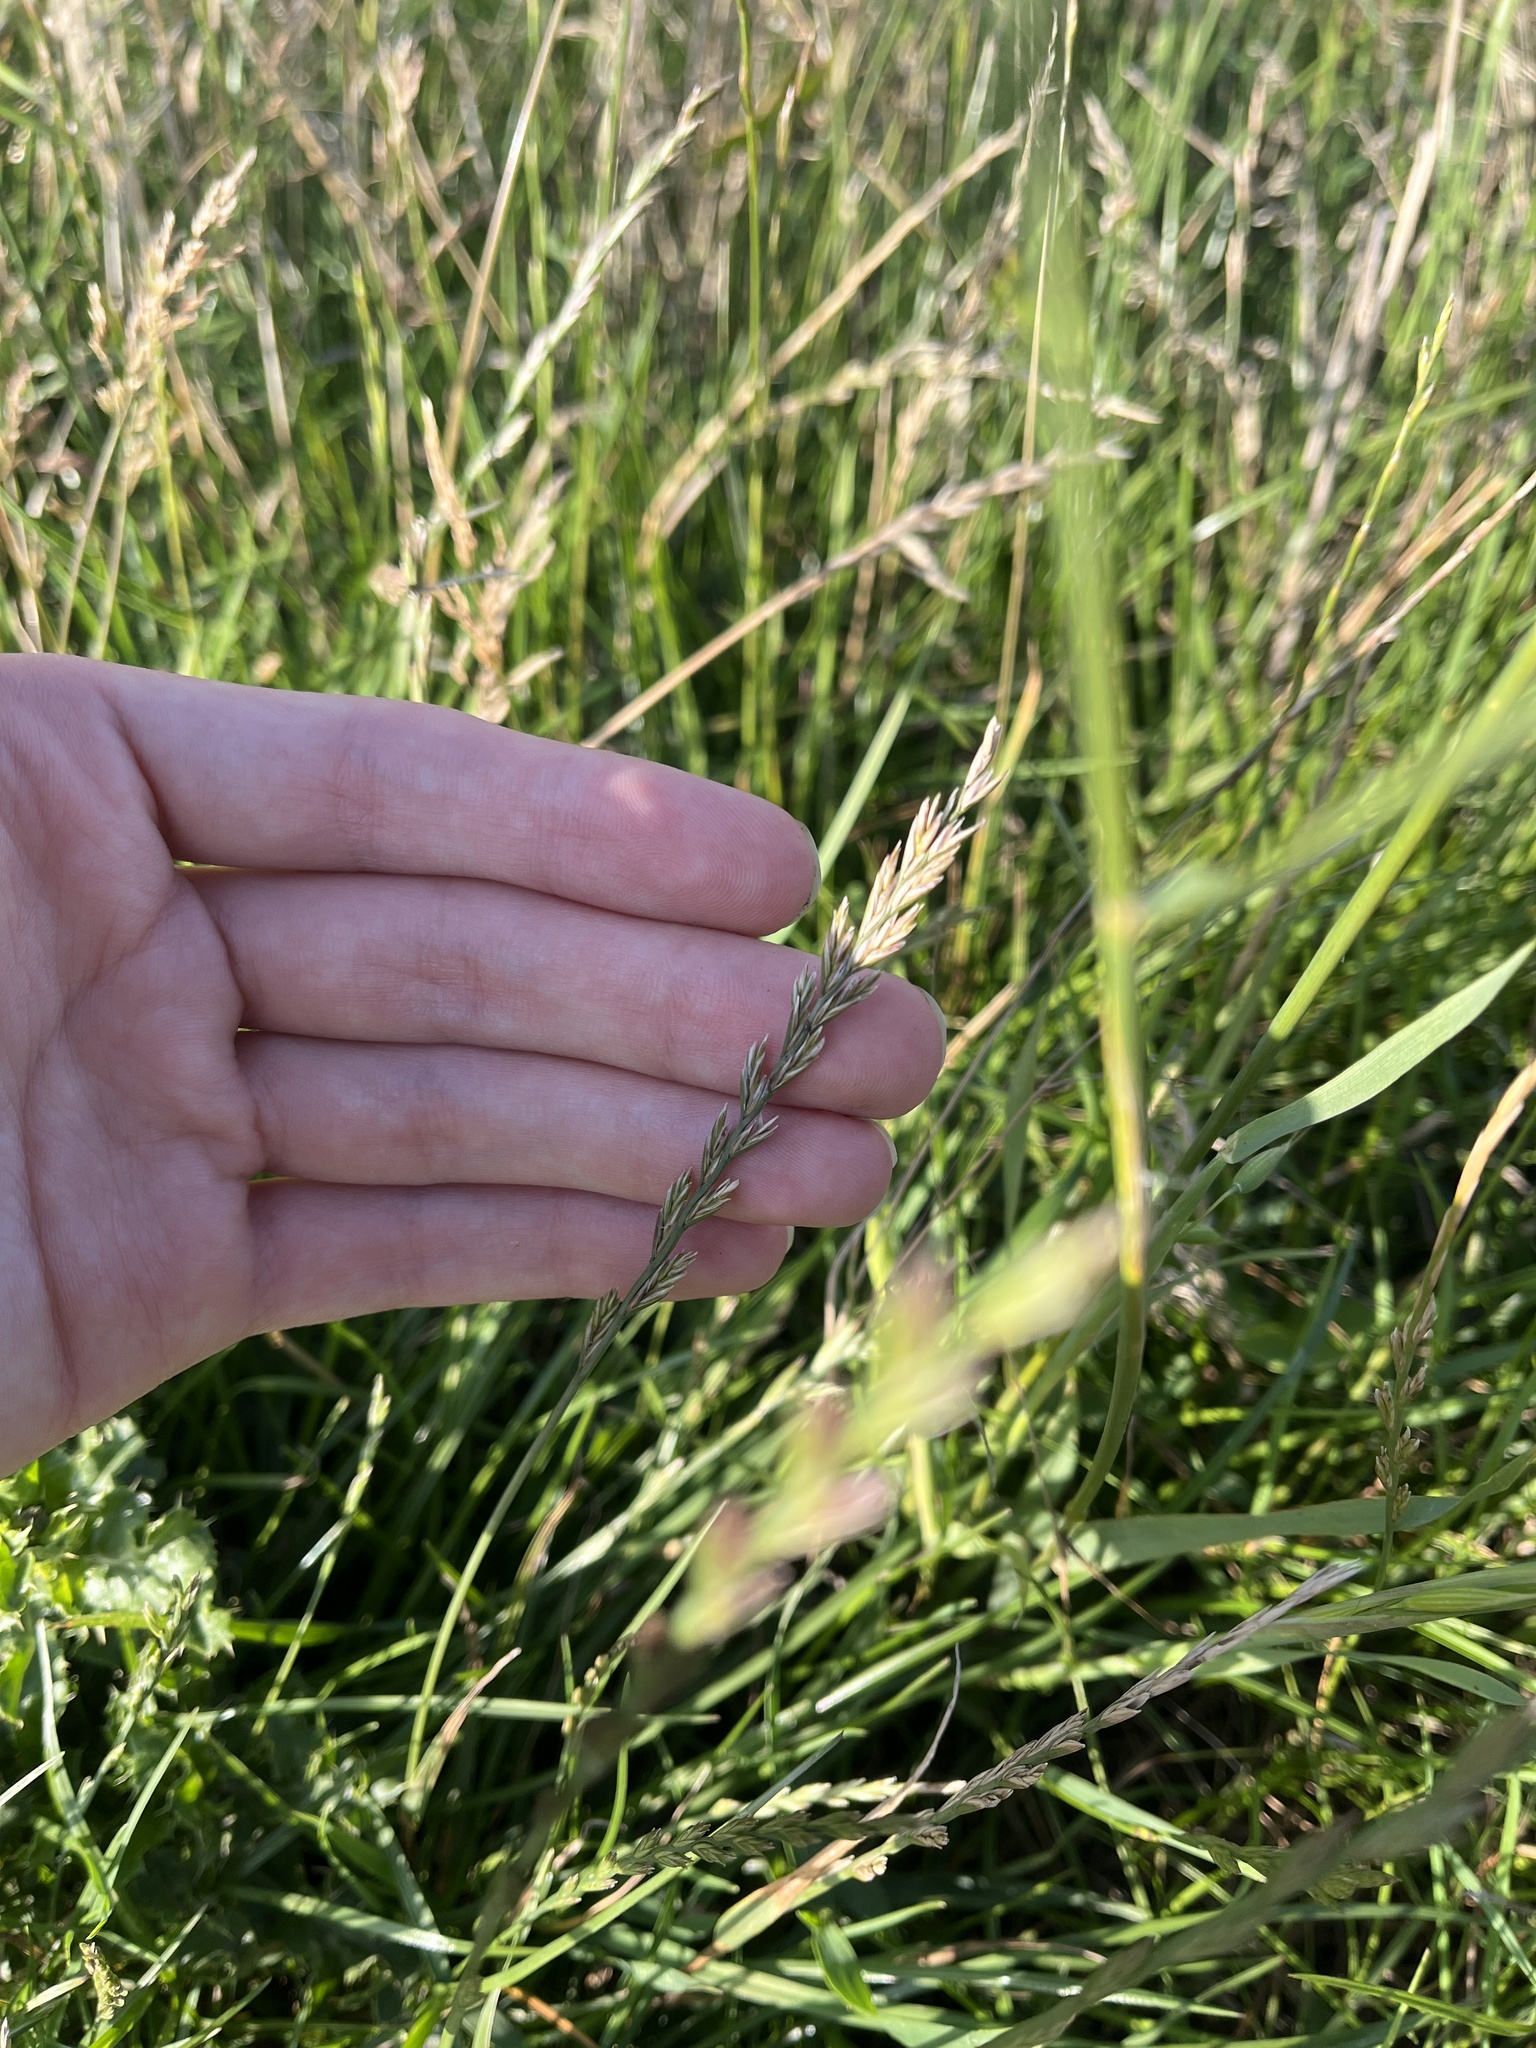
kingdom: Plantae
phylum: Tracheophyta
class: Liliopsida
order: Poales
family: Poaceae
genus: Lolium
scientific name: Lolium perenne
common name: Perennial ryegrass
